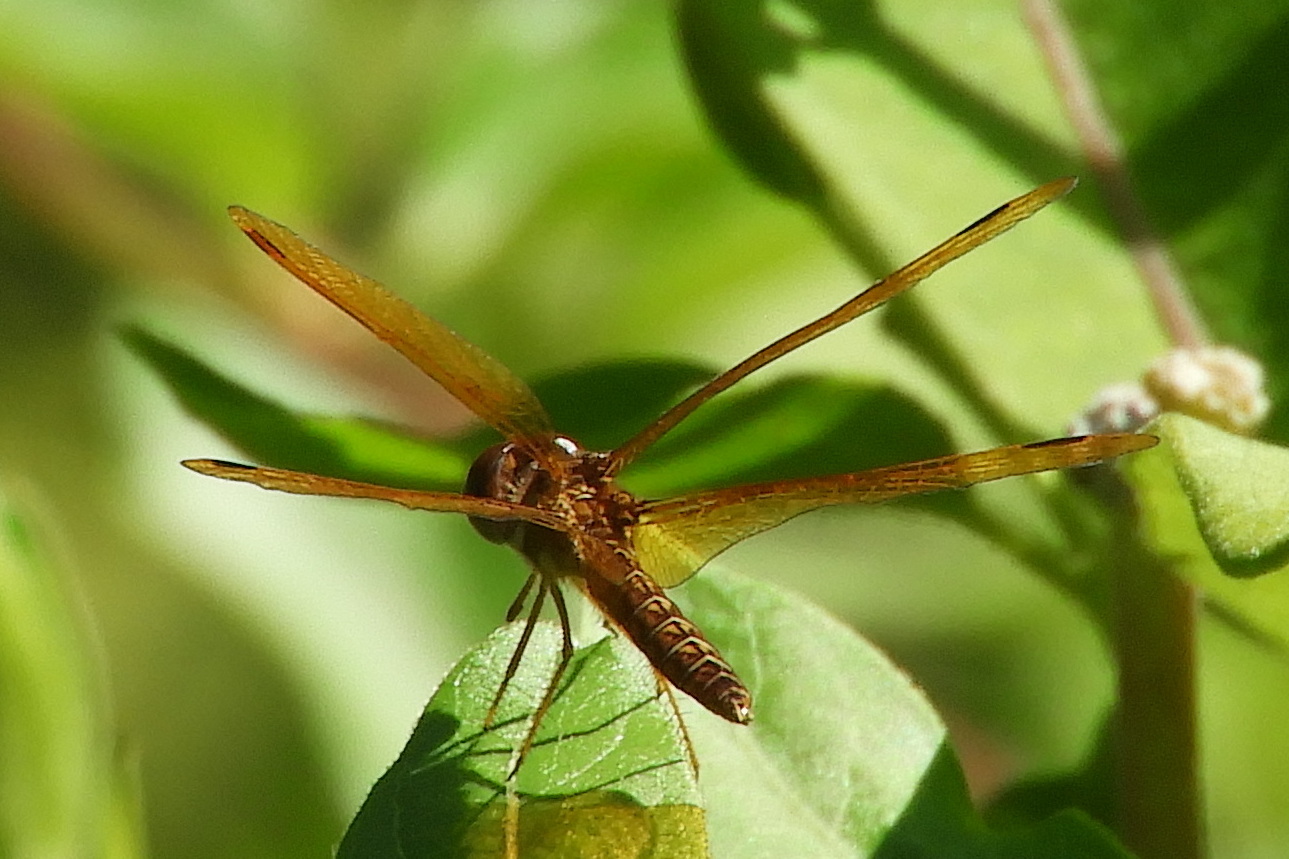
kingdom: Animalia
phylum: Arthropoda
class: Insecta
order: Odonata
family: Libellulidae
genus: Perithemis
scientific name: Perithemis tenera
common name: Eastern amberwing
